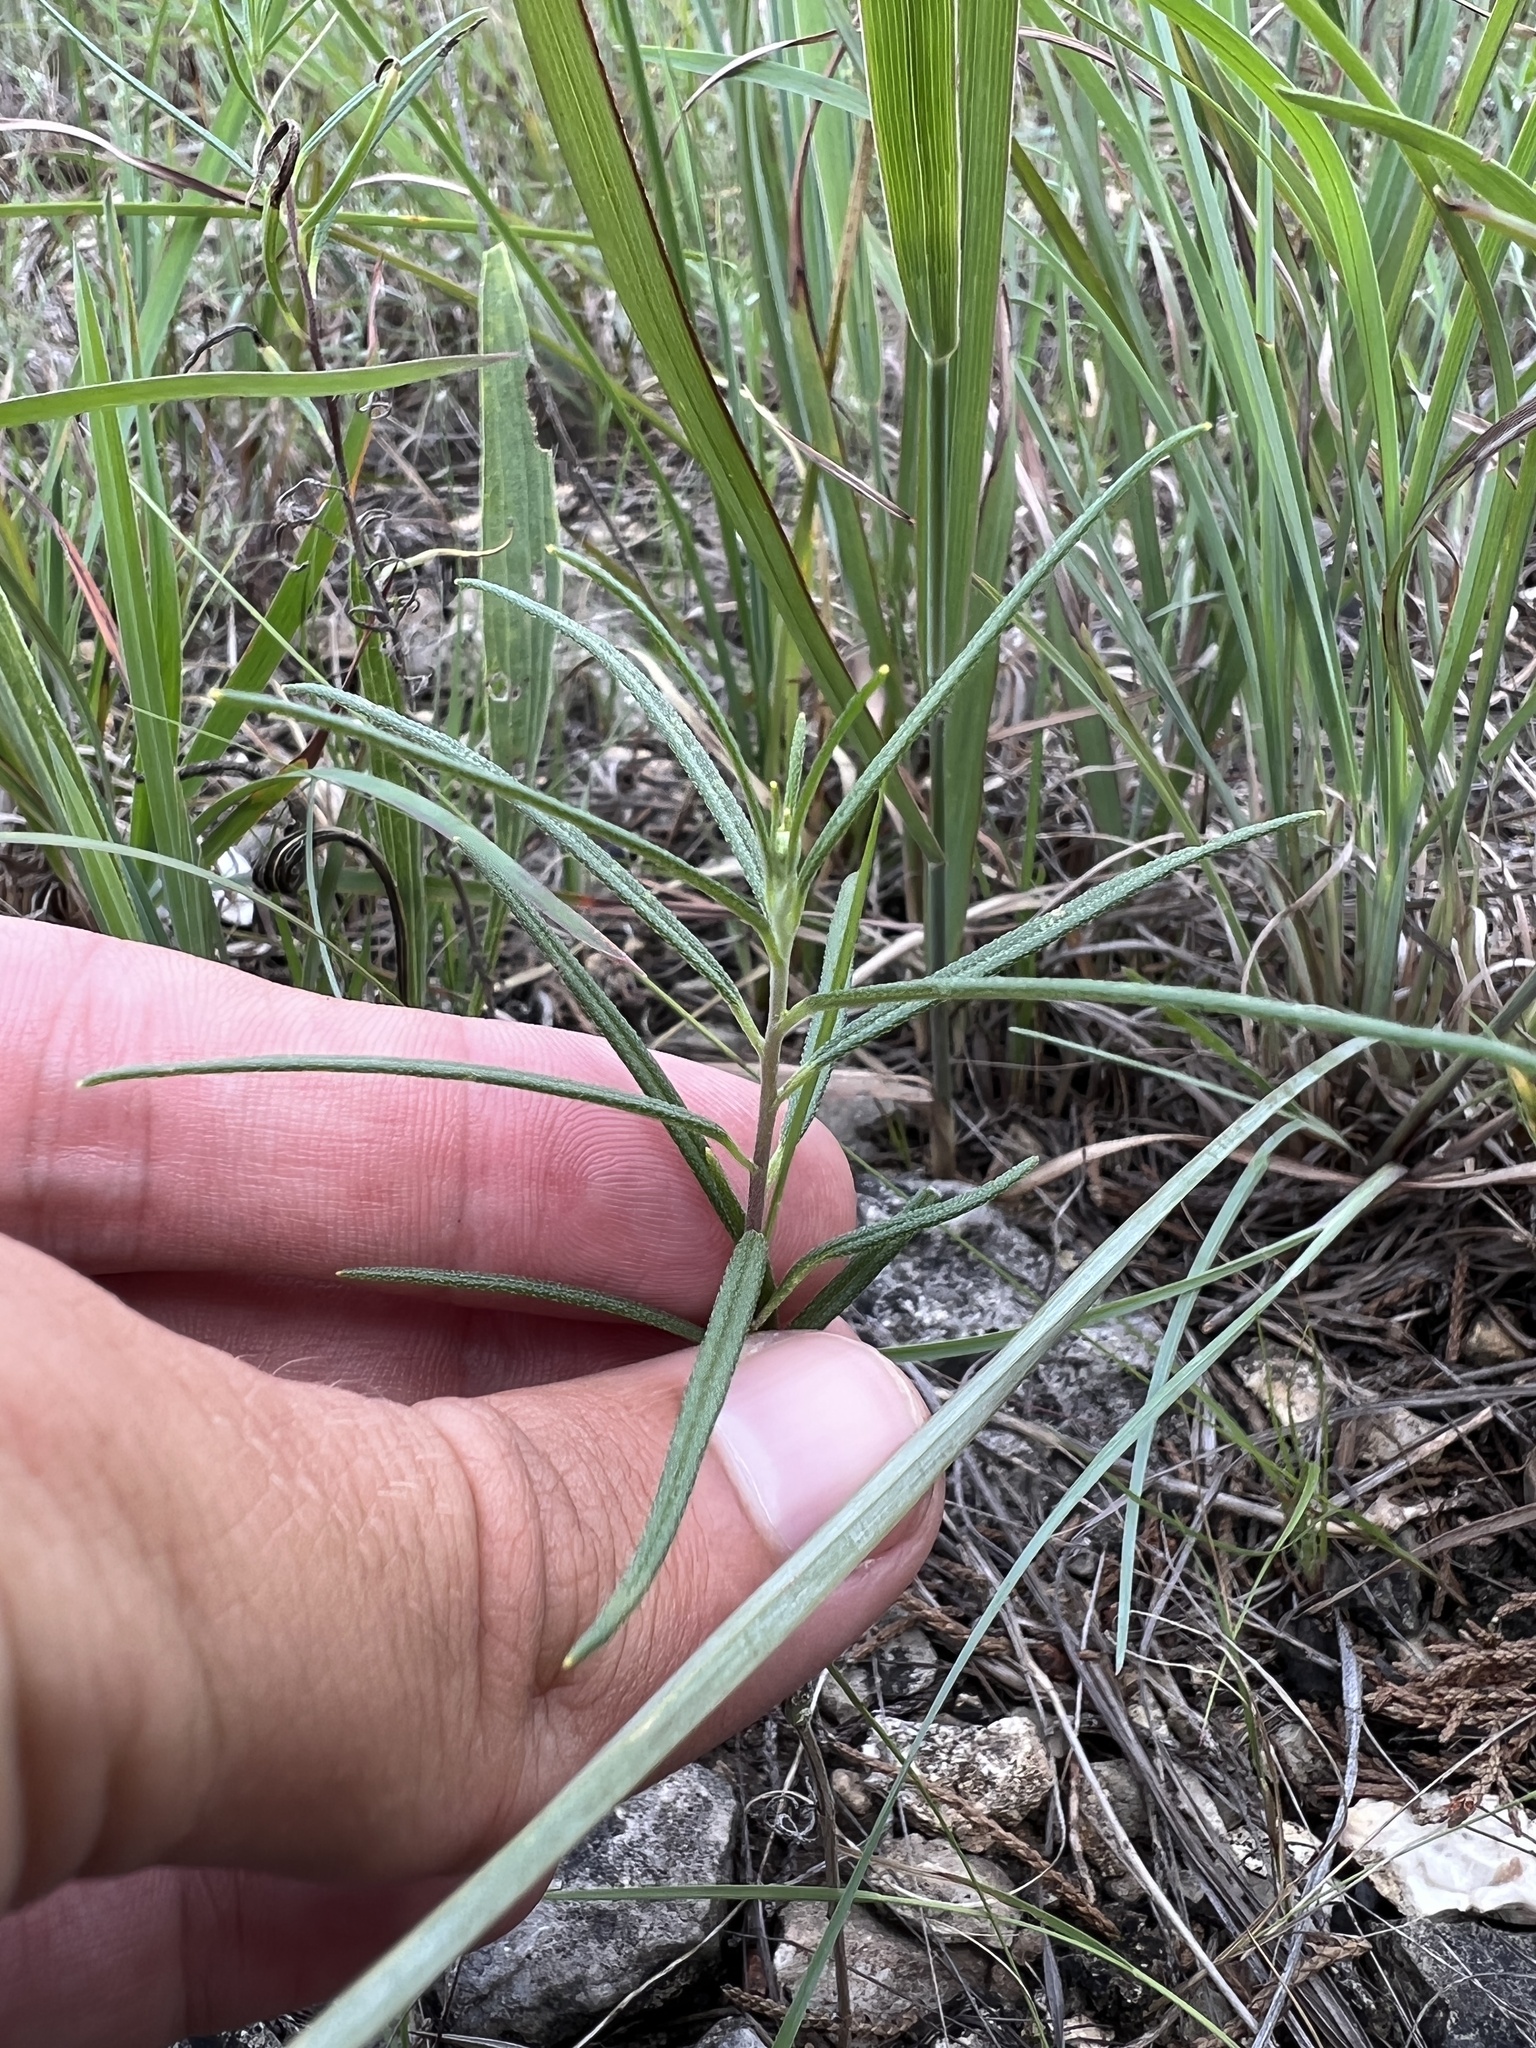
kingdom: Plantae
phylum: Tracheophyta
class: Magnoliopsida
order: Asterales
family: Asteraceae
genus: Palafoxia
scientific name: Palafoxia callosa
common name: Small palafox
